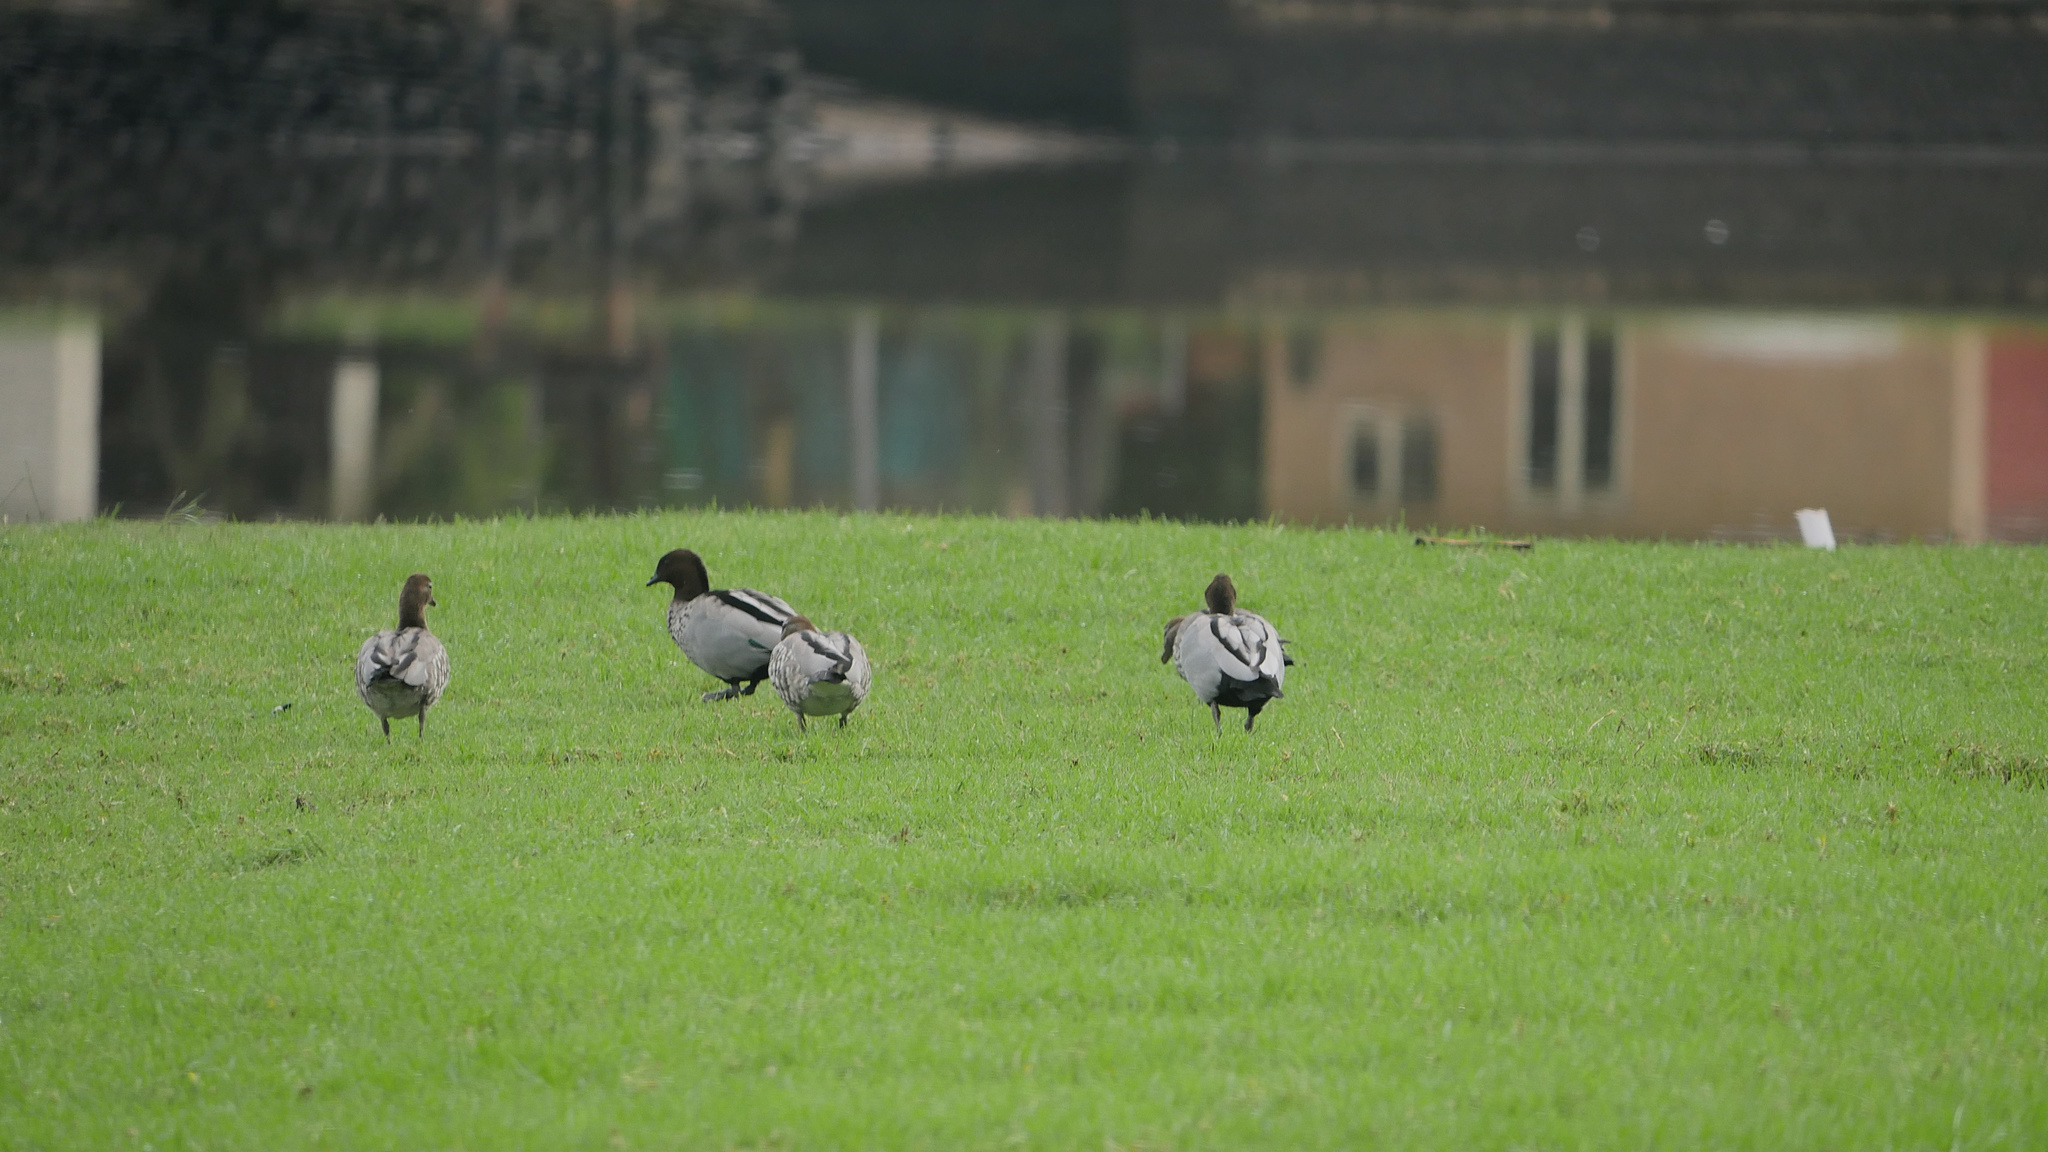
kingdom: Animalia
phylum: Chordata
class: Aves
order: Anseriformes
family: Anatidae
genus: Chenonetta
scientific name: Chenonetta jubata
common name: Maned duck
